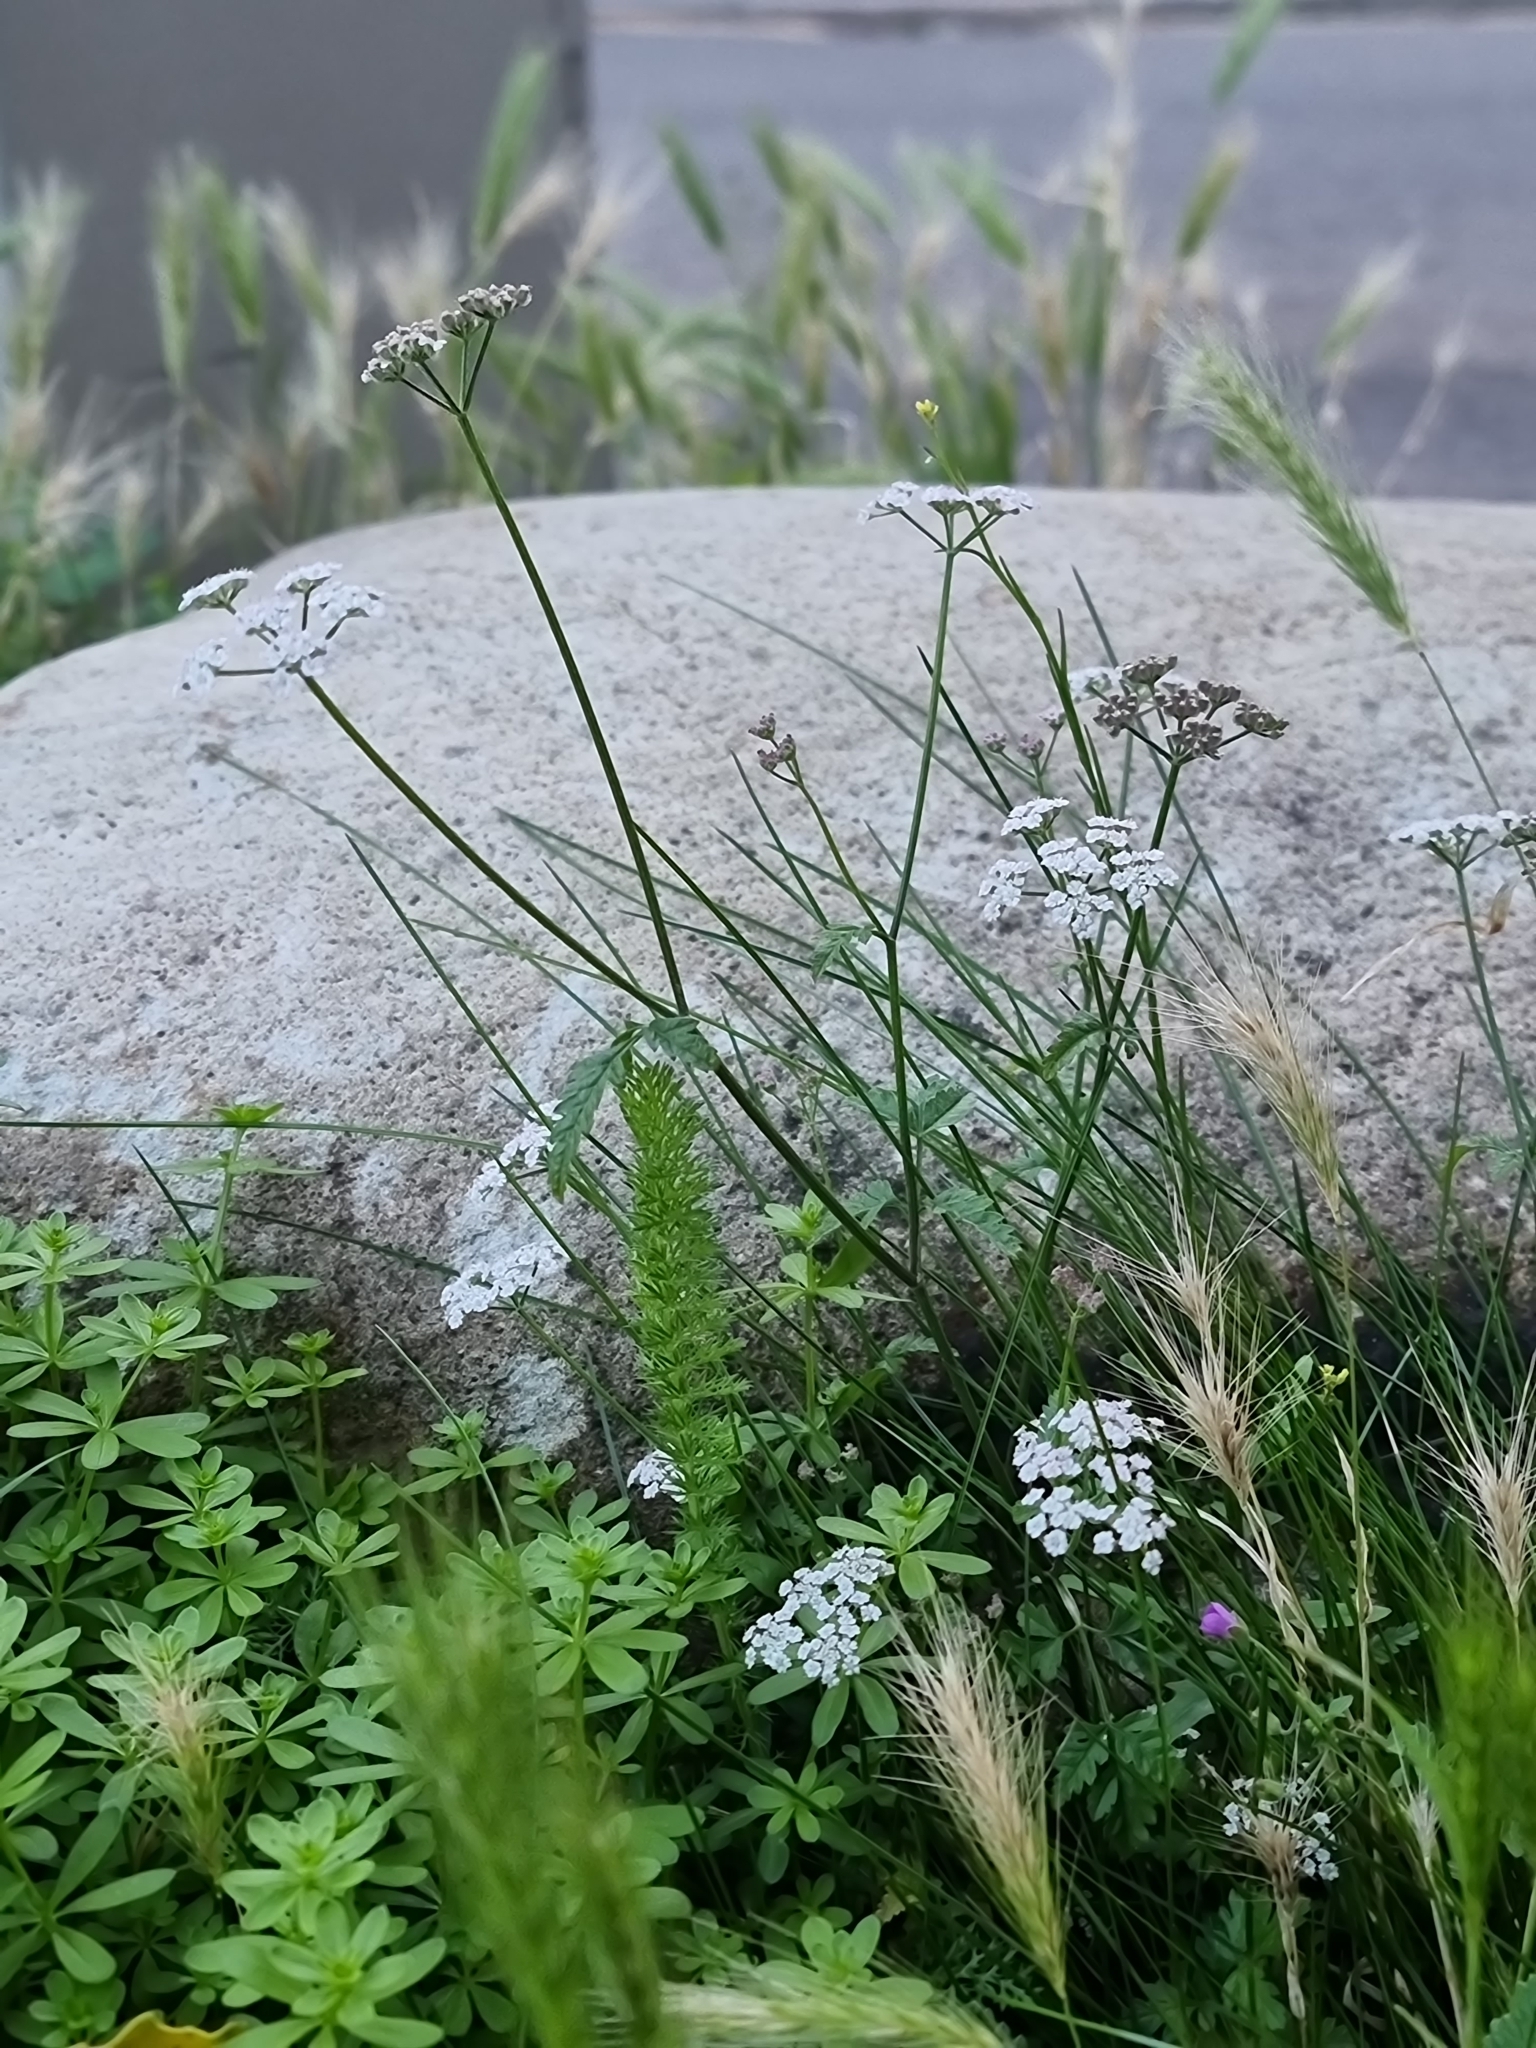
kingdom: Plantae
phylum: Tracheophyta
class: Magnoliopsida
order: Apiales
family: Apiaceae
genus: Torilis
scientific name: Torilis japonica
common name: Upright hedge-parsley
